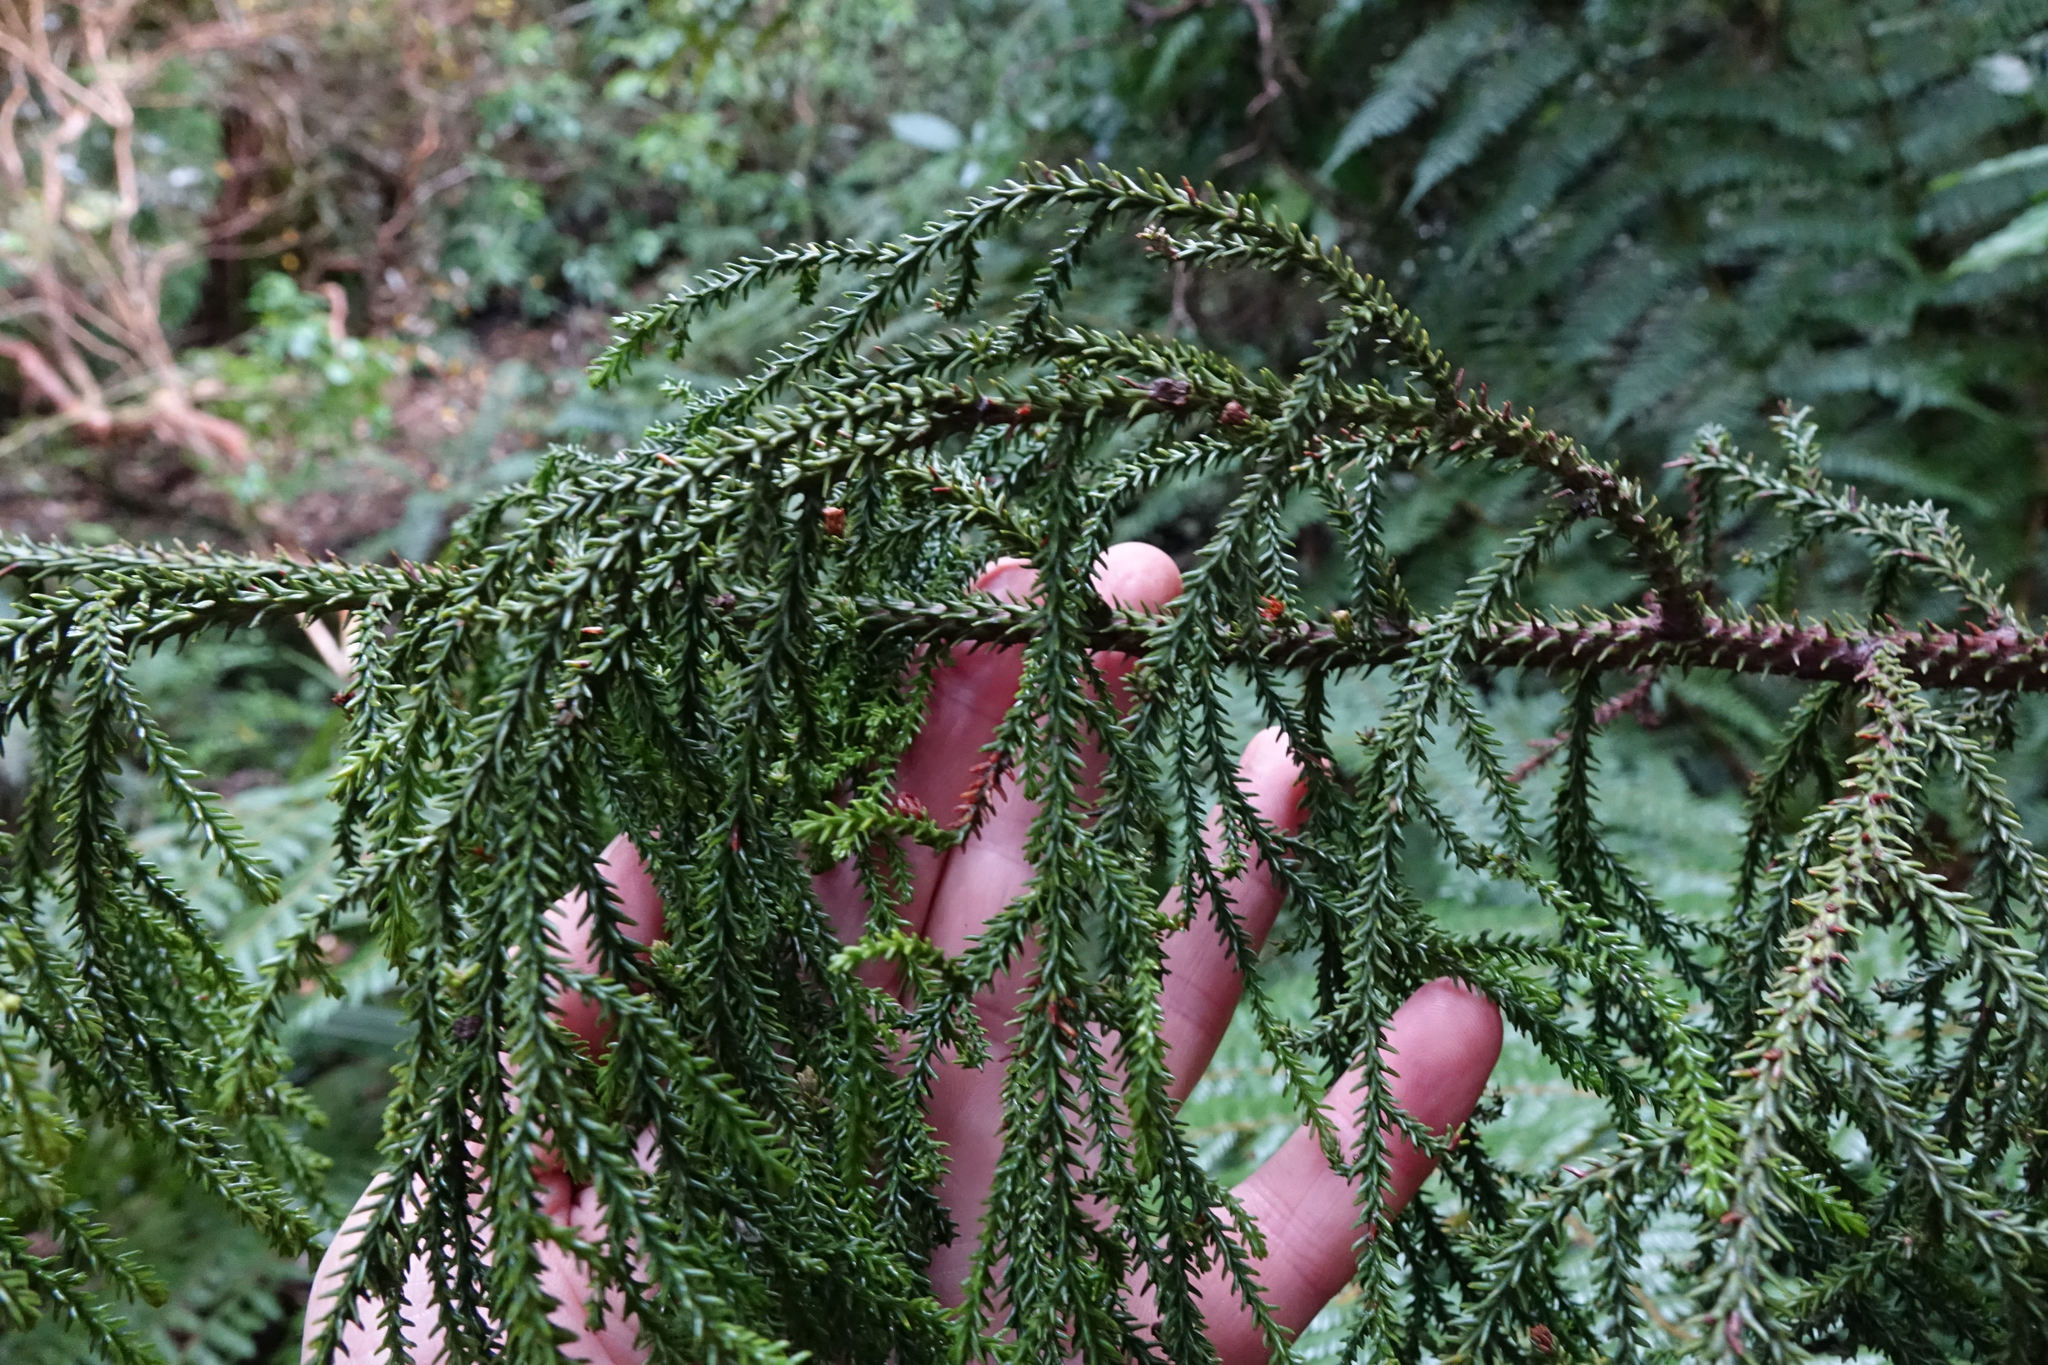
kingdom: Plantae
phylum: Tracheophyta
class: Pinopsida
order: Pinales
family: Podocarpaceae
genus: Dacrydium
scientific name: Dacrydium cupressinum
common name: Red pine
